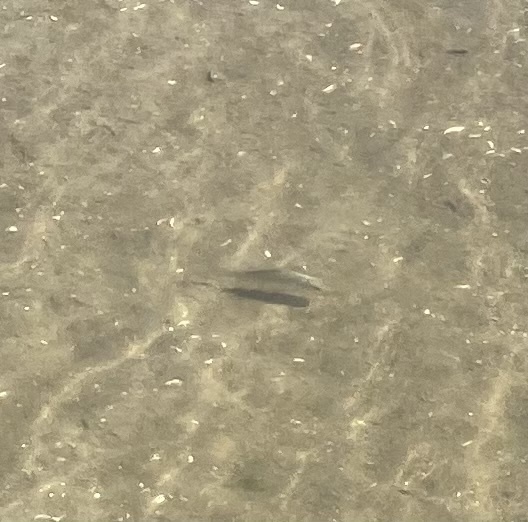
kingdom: Animalia
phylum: Chordata
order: Cypriniformes
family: Cyprinidae
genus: Carassius
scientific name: Carassius gibelio
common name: Prussian carp
